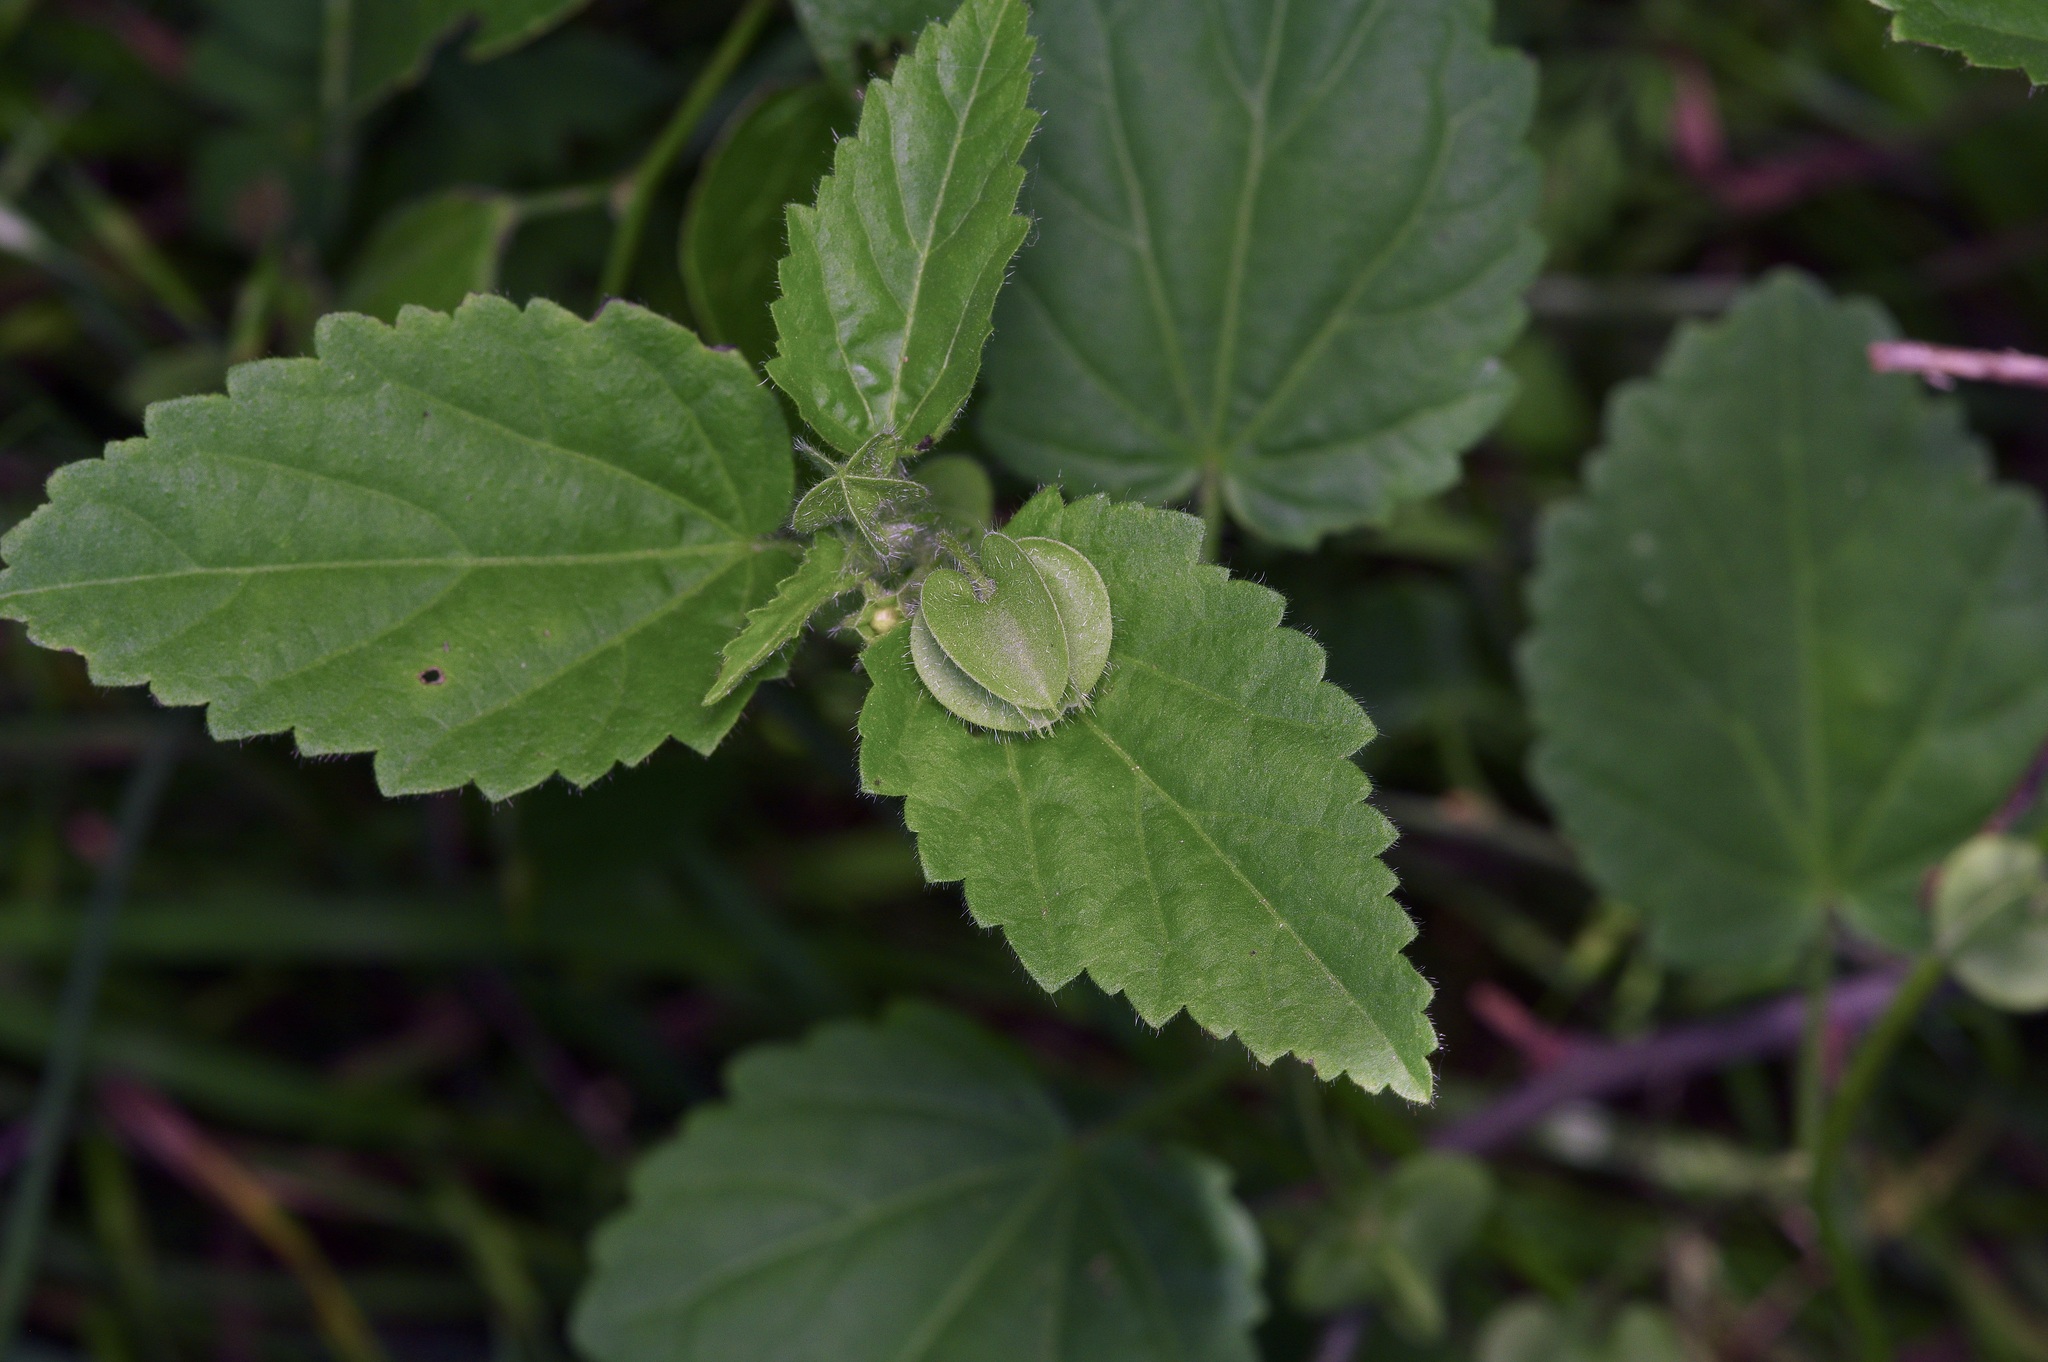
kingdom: Plantae
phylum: Tracheophyta
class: Magnoliopsida
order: Malvales
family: Malvaceae
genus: Rhynchosida
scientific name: Rhynchosida physocalyx
